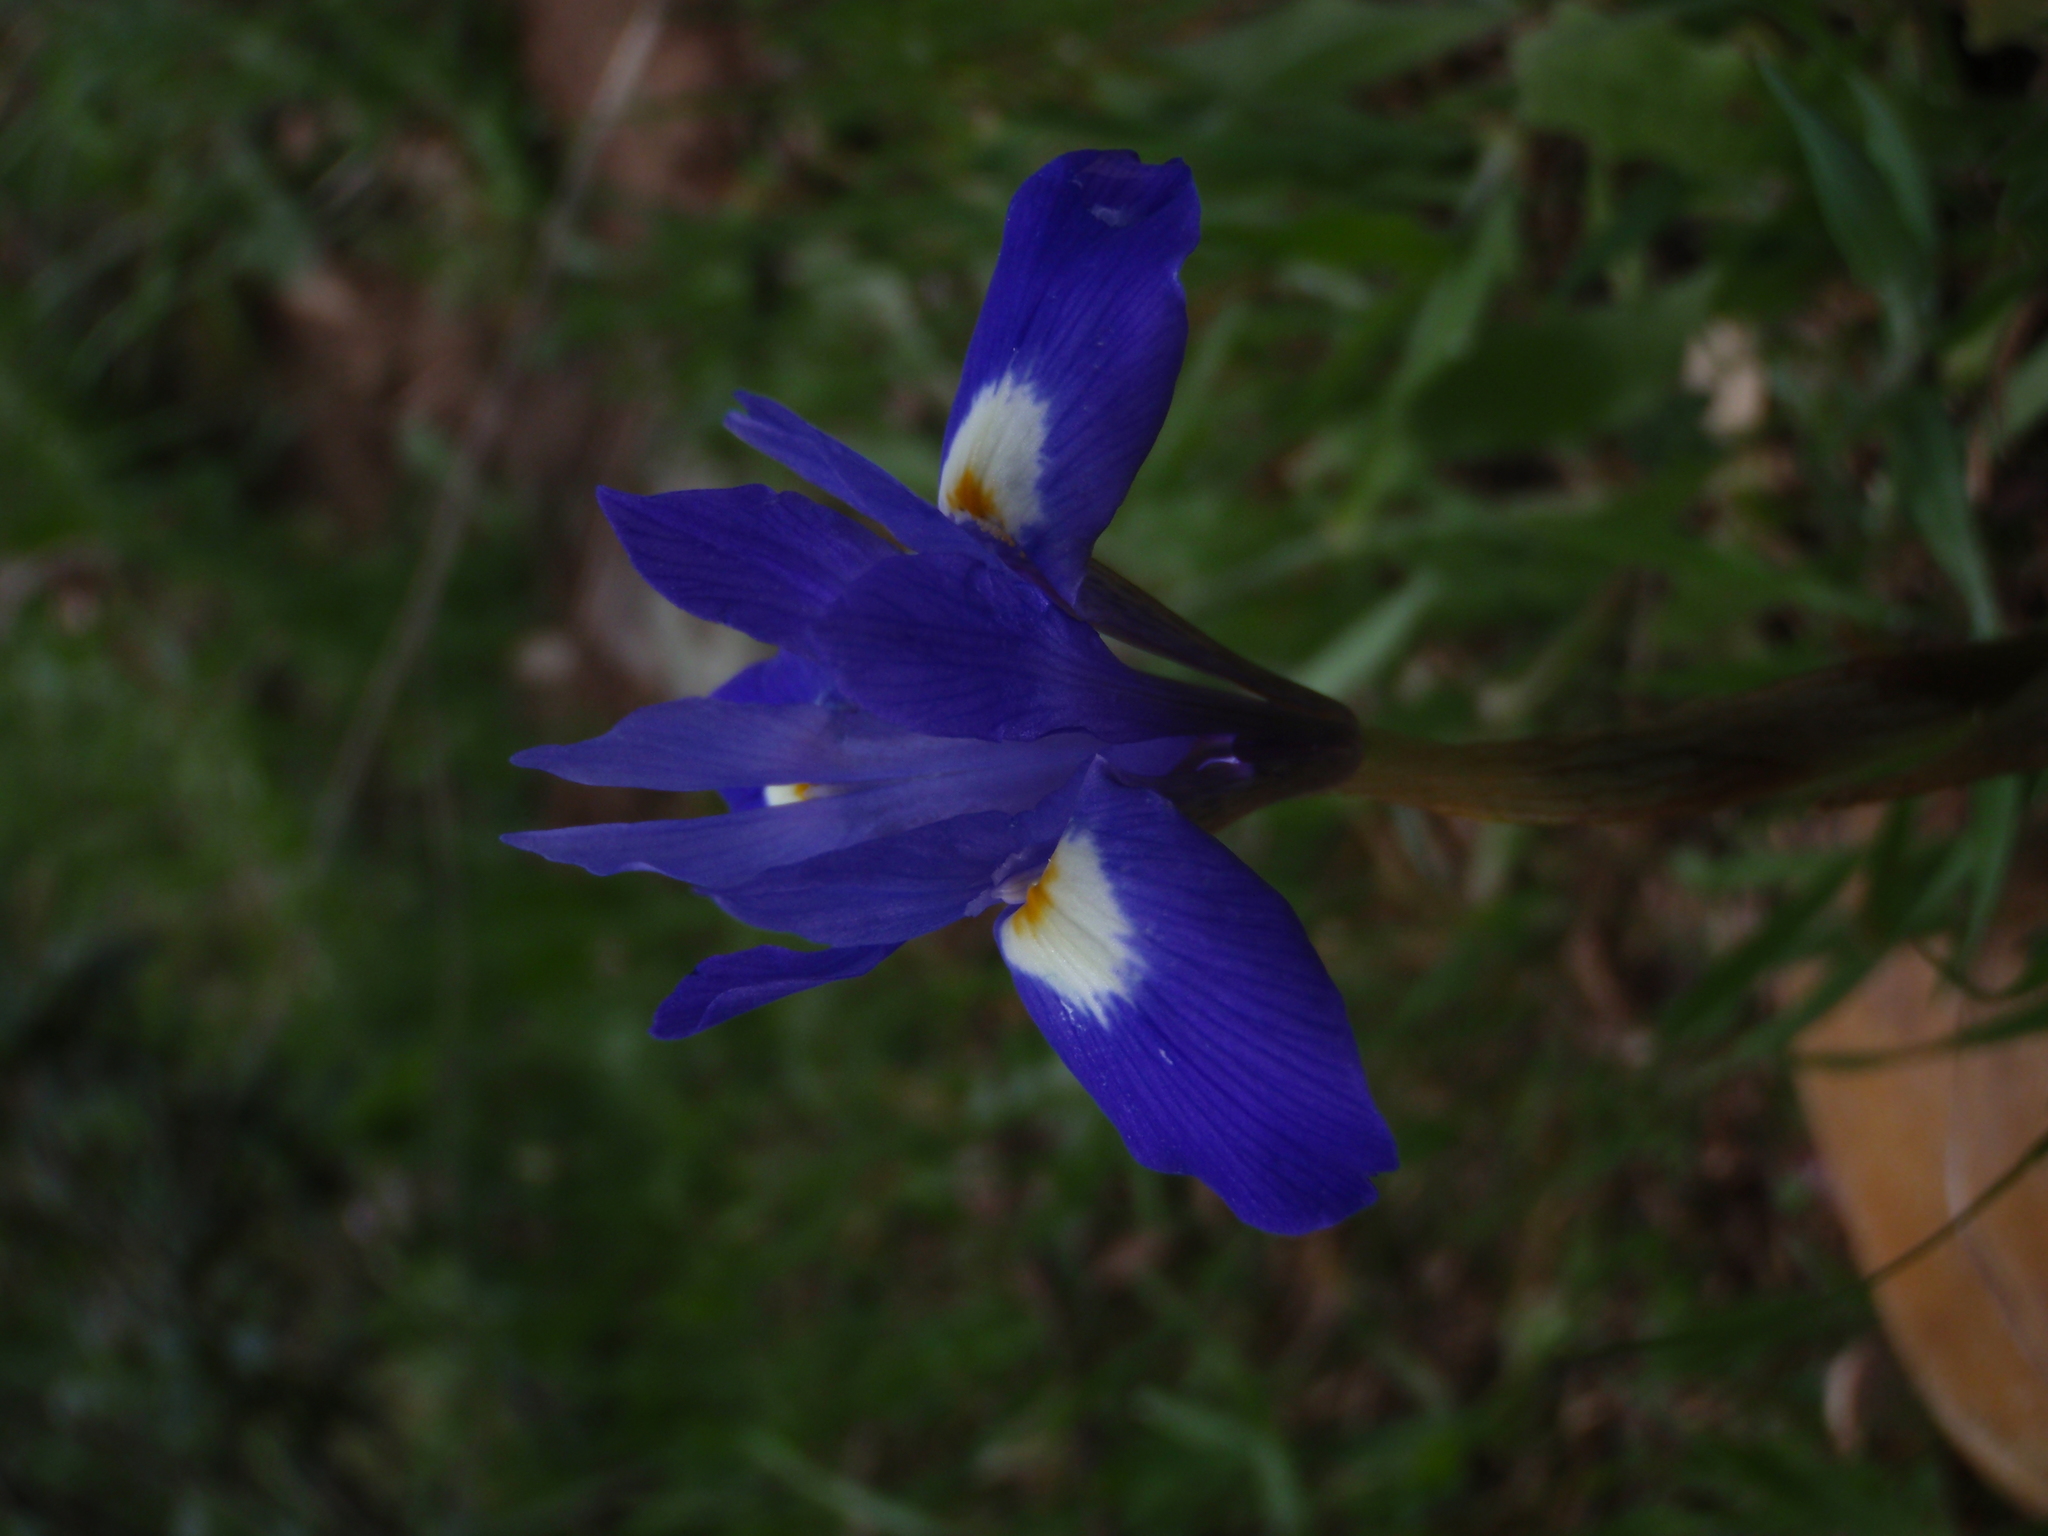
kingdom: Plantae
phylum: Tracheophyta
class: Liliopsida
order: Asparagales
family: Iridaceae
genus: Moraea
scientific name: Moraea sisyrinchium
